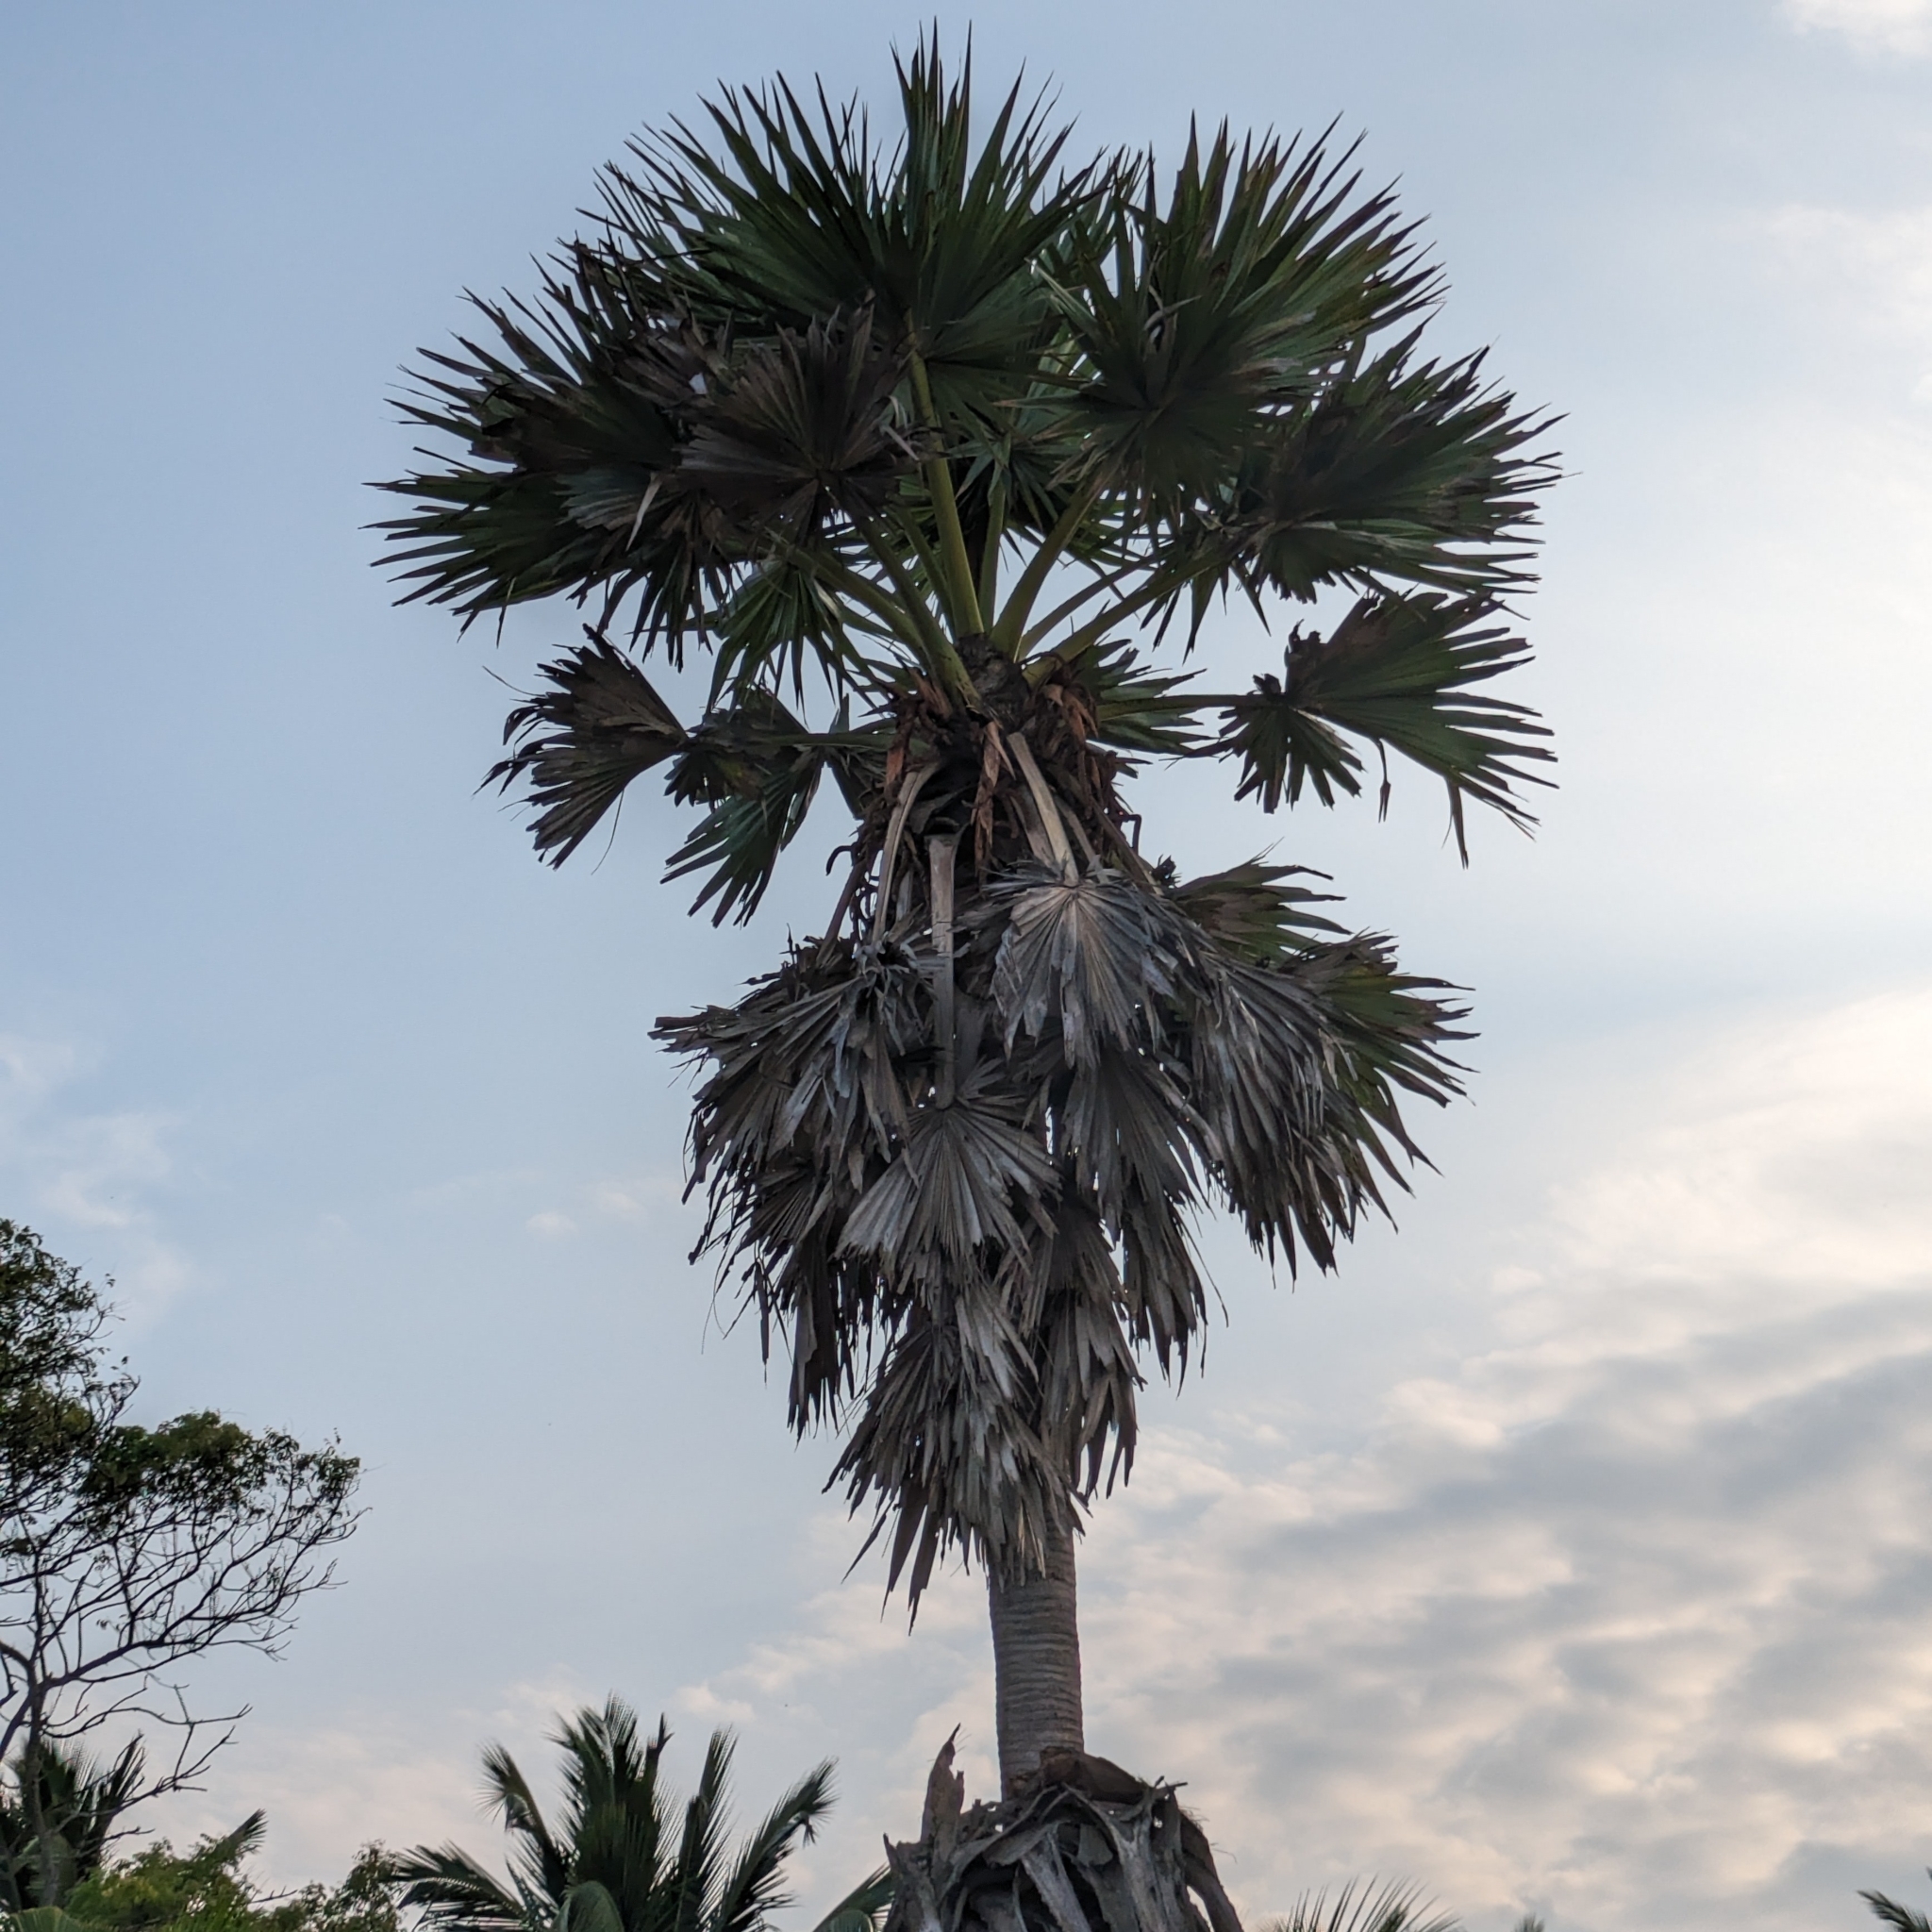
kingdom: Plantae
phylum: Tracheophyta
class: Liliopsida
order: Arecales
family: Arecaceae
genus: Borassus
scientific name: Borassus flabellifer
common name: Palmyra palm
